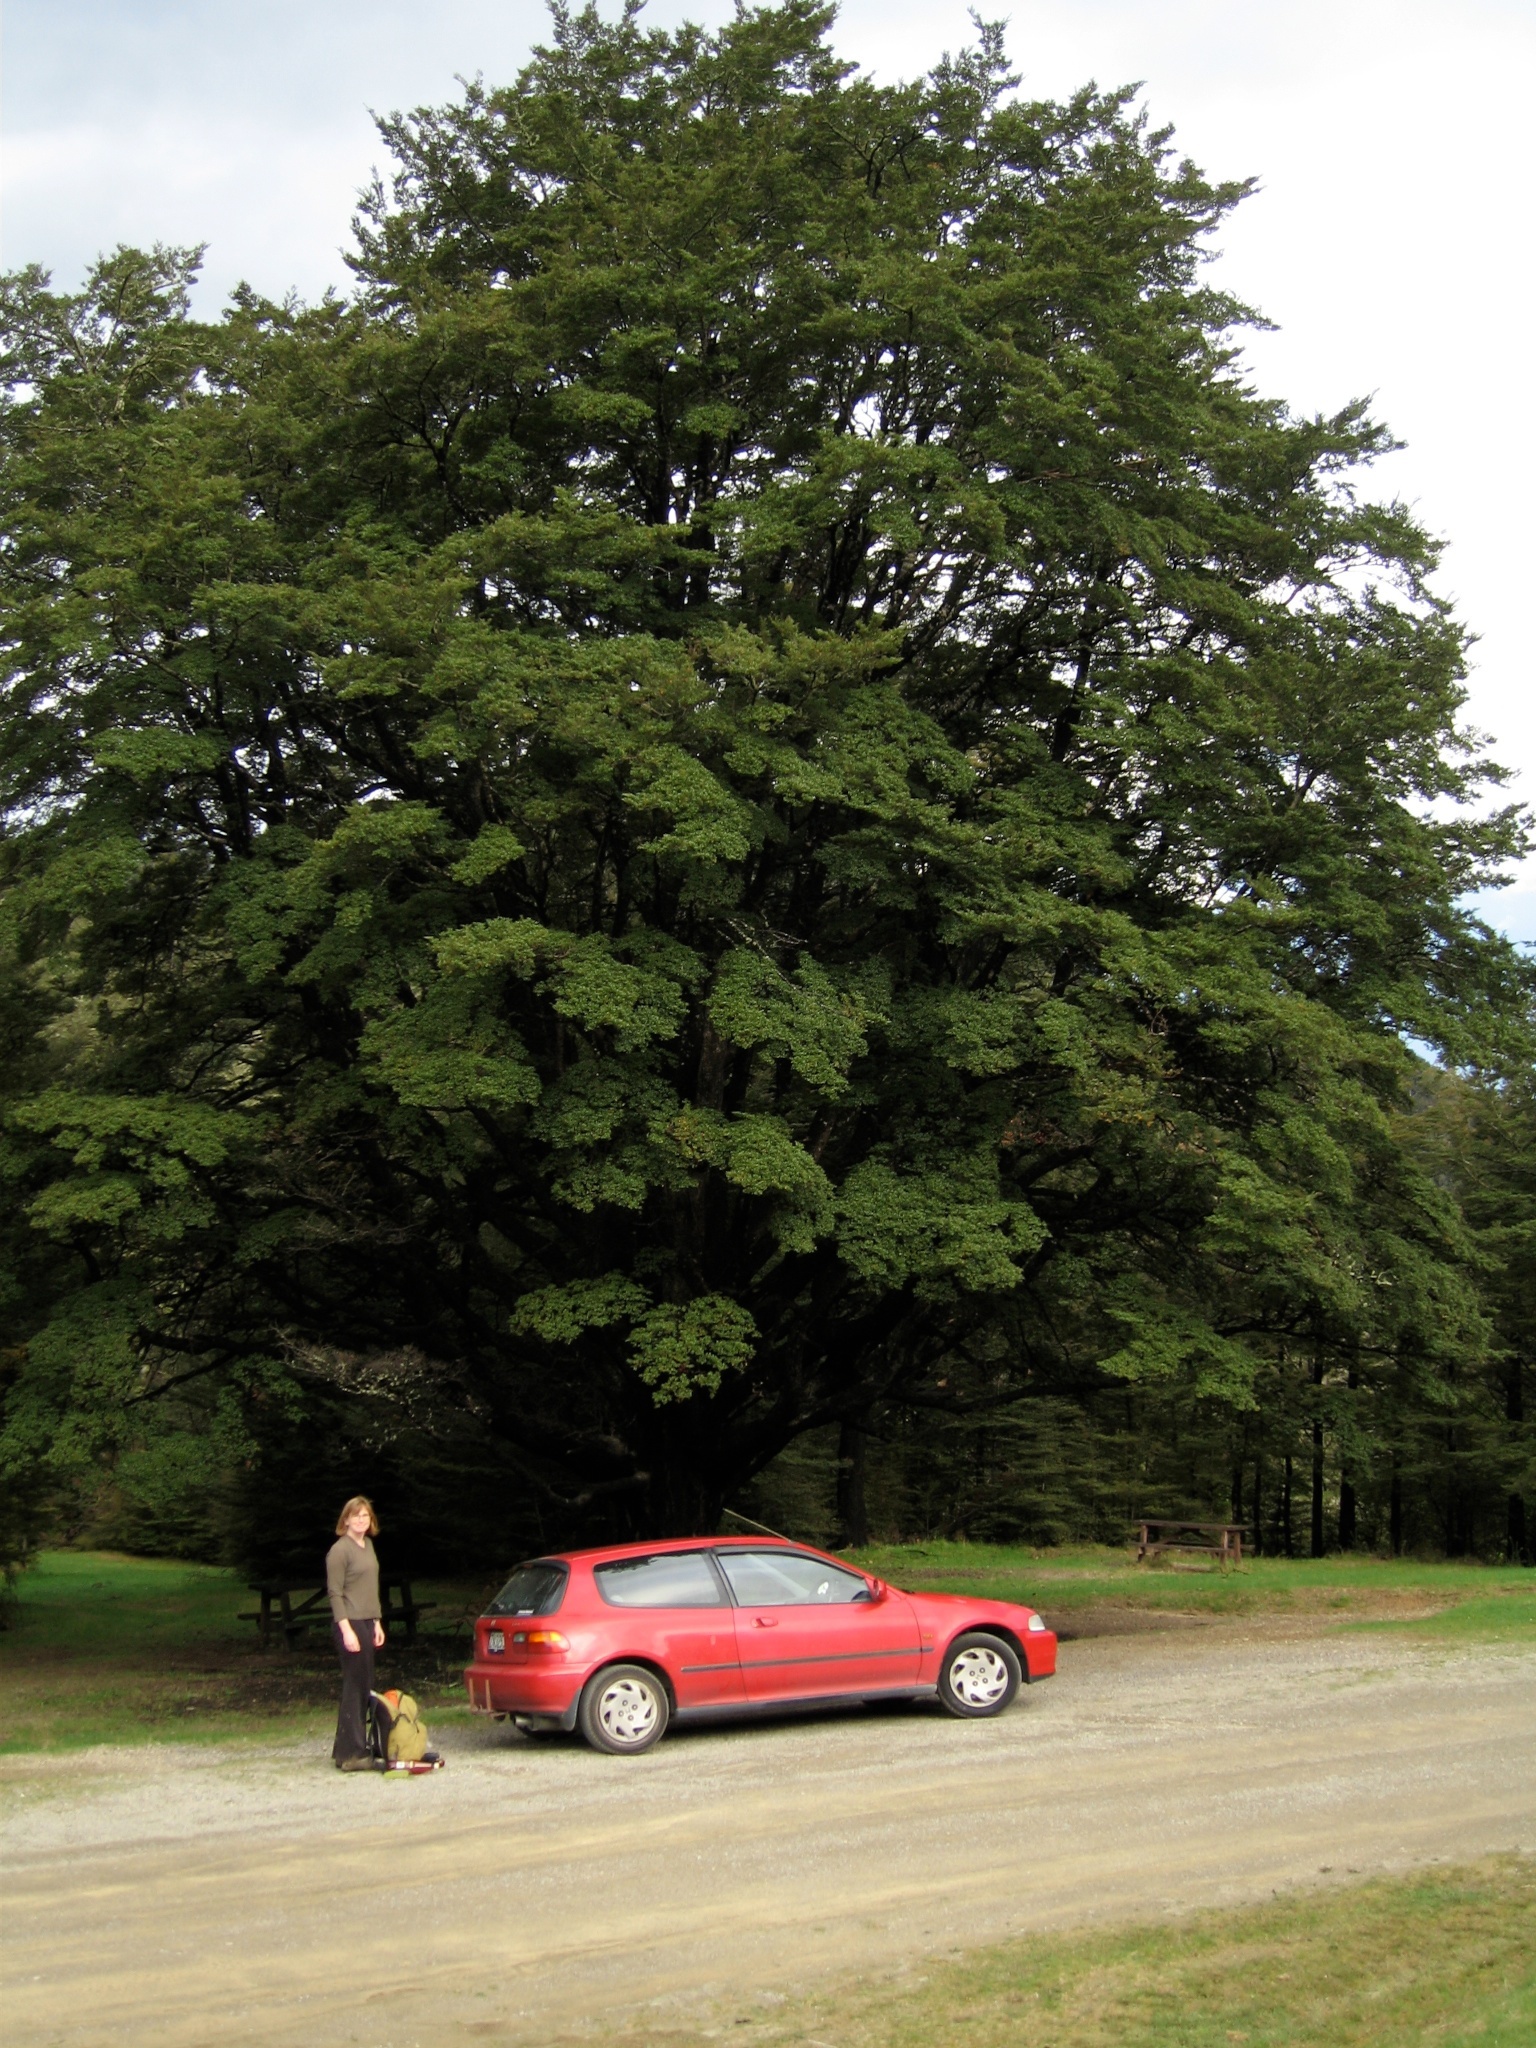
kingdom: Plantae
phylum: Tracheophyta
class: Magnoliopsida
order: Fagales
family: Nothofagaceae
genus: Nothofagus
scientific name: Nothofagus solandri
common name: Black beech
